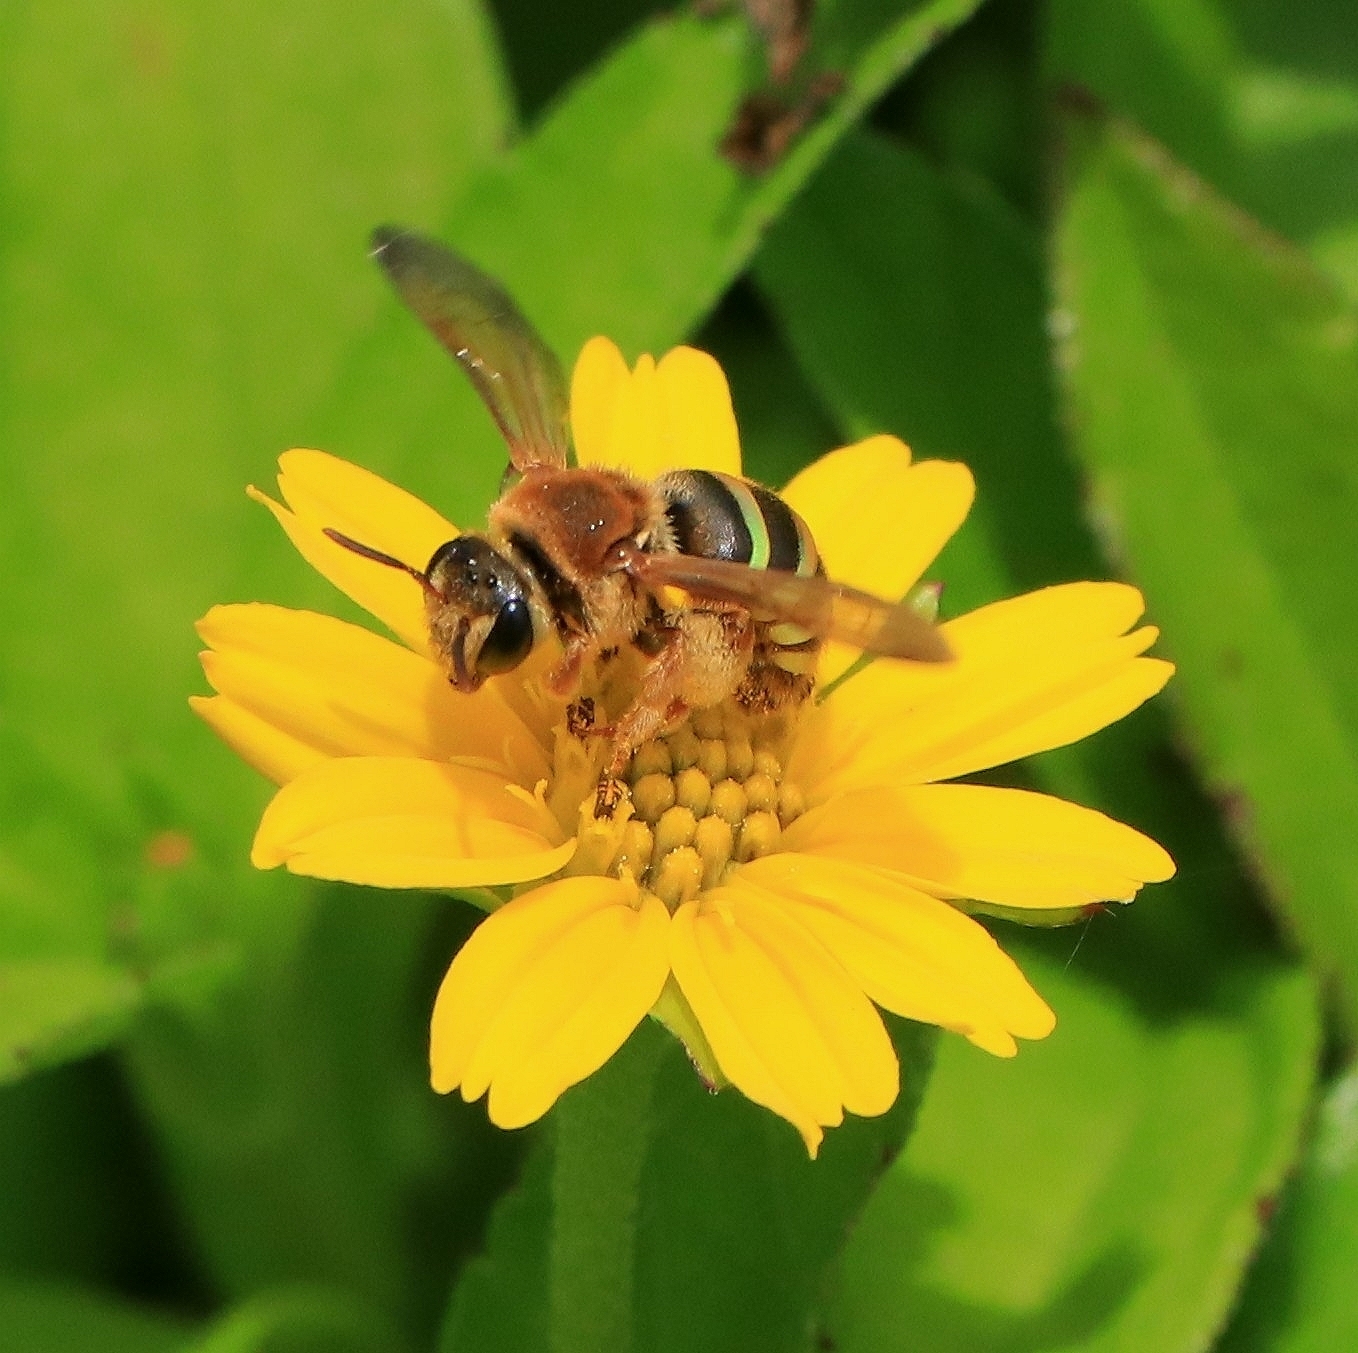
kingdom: Animalia
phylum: Arthropoda
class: Insecta
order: Hymenoptera
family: Halictidae
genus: Nomia
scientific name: Nomia crassipes
